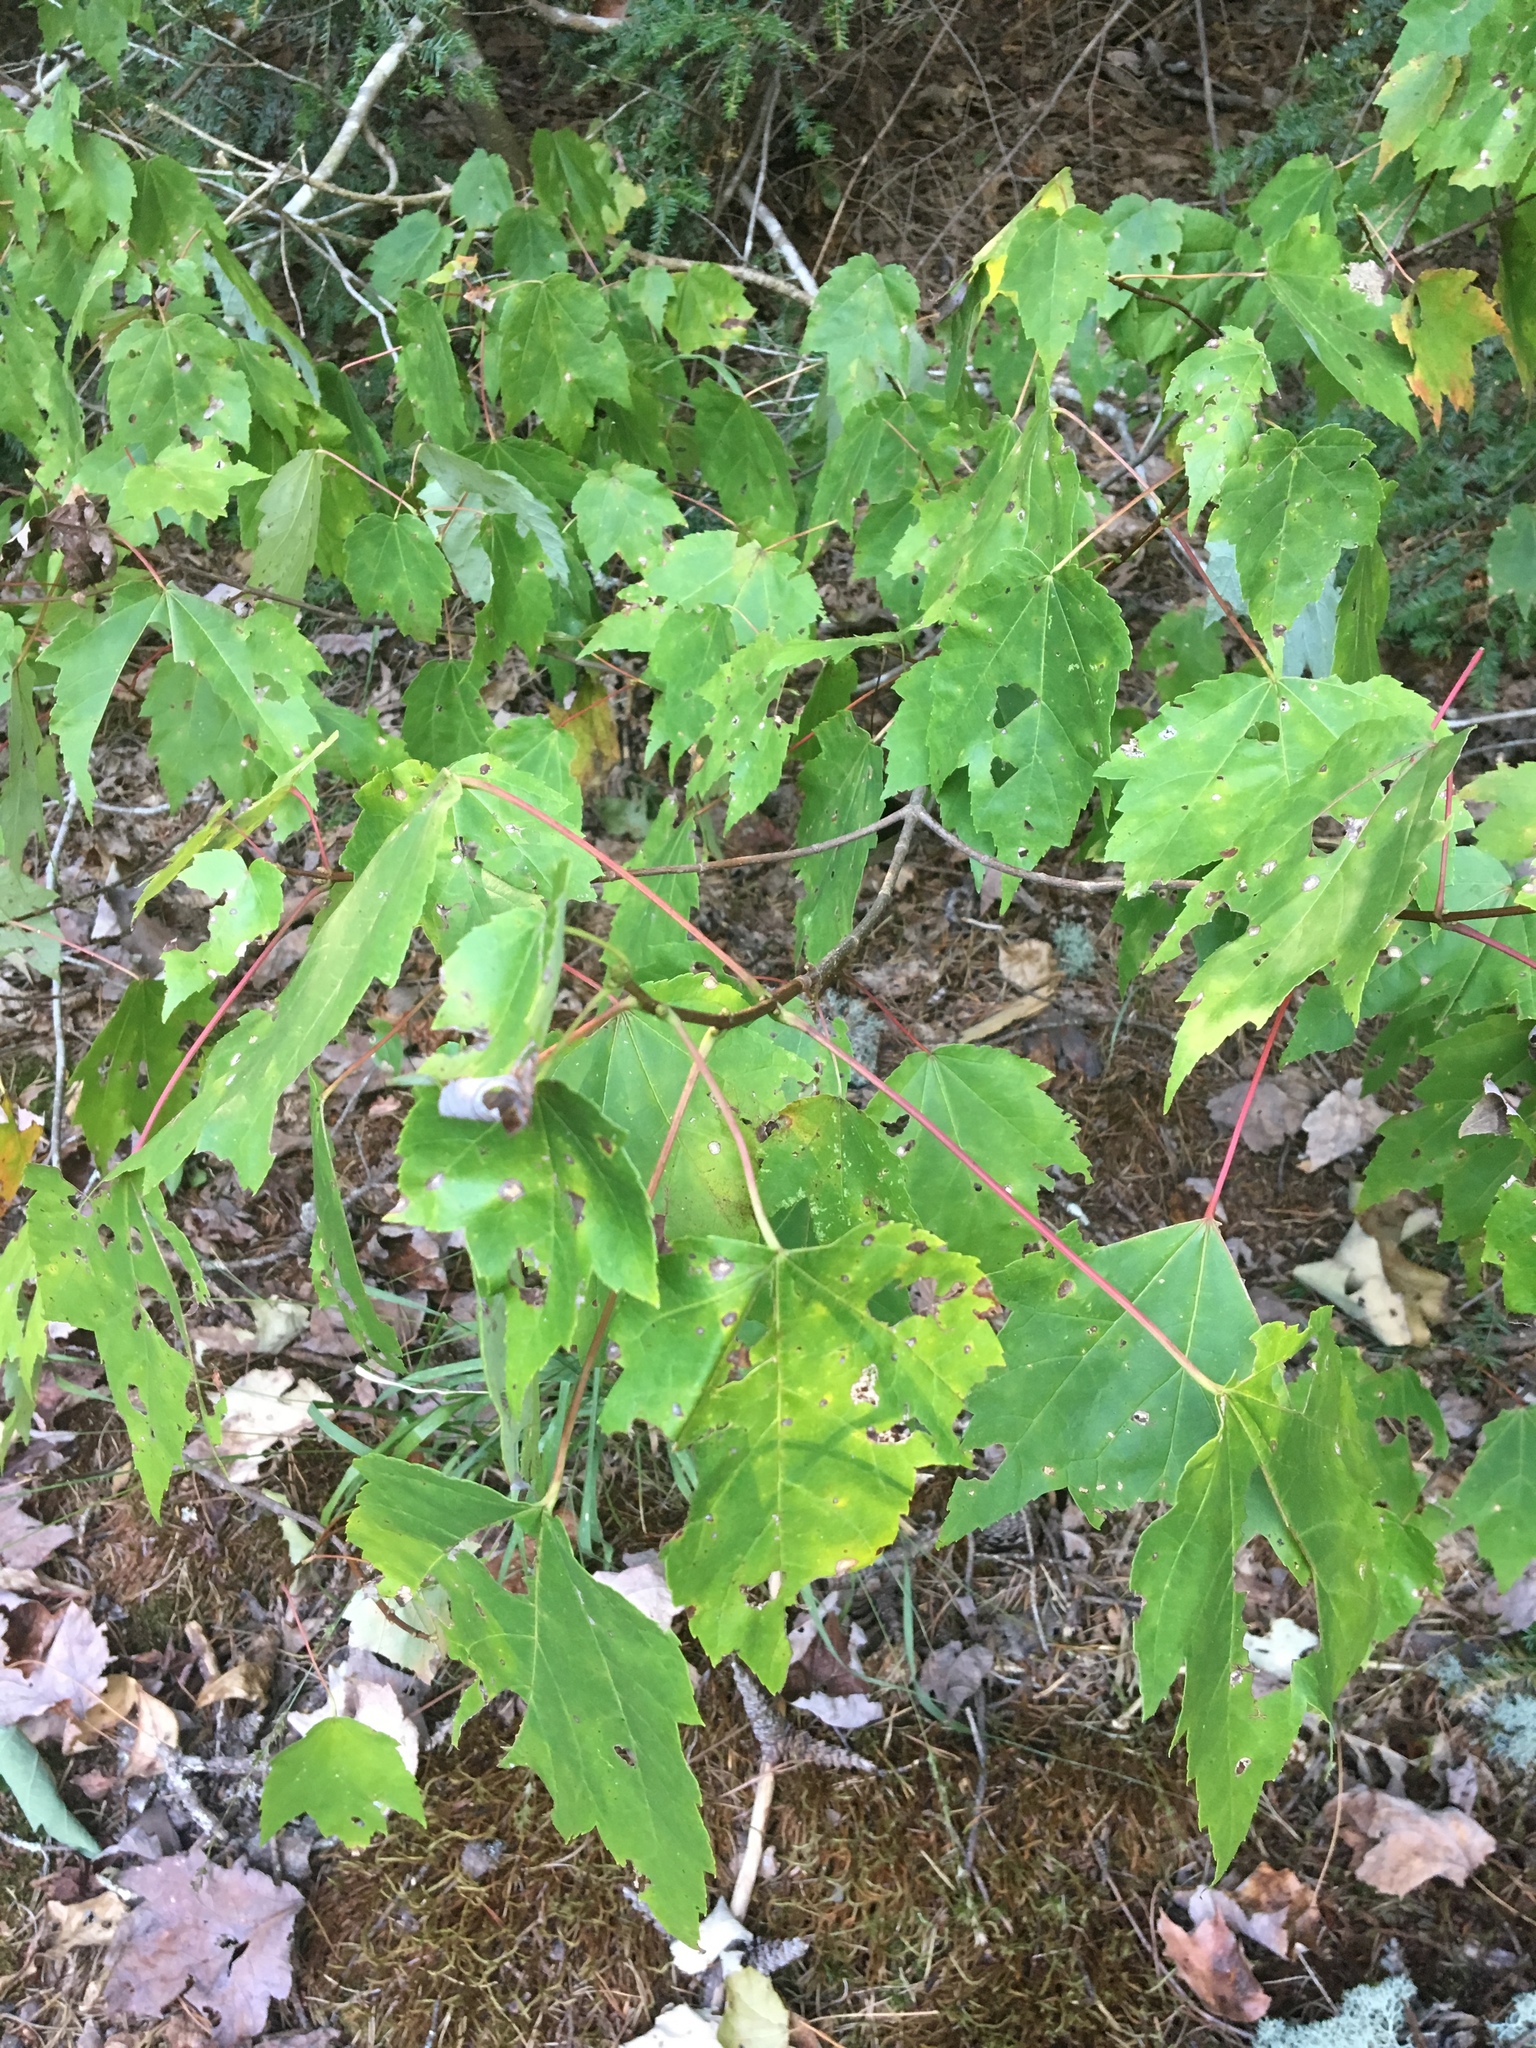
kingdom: Plantae
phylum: Tracheophyta
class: Magnoliopsida
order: Sapindales
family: Sapindaceae
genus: Acer
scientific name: Acer rubrum
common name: Red maple
